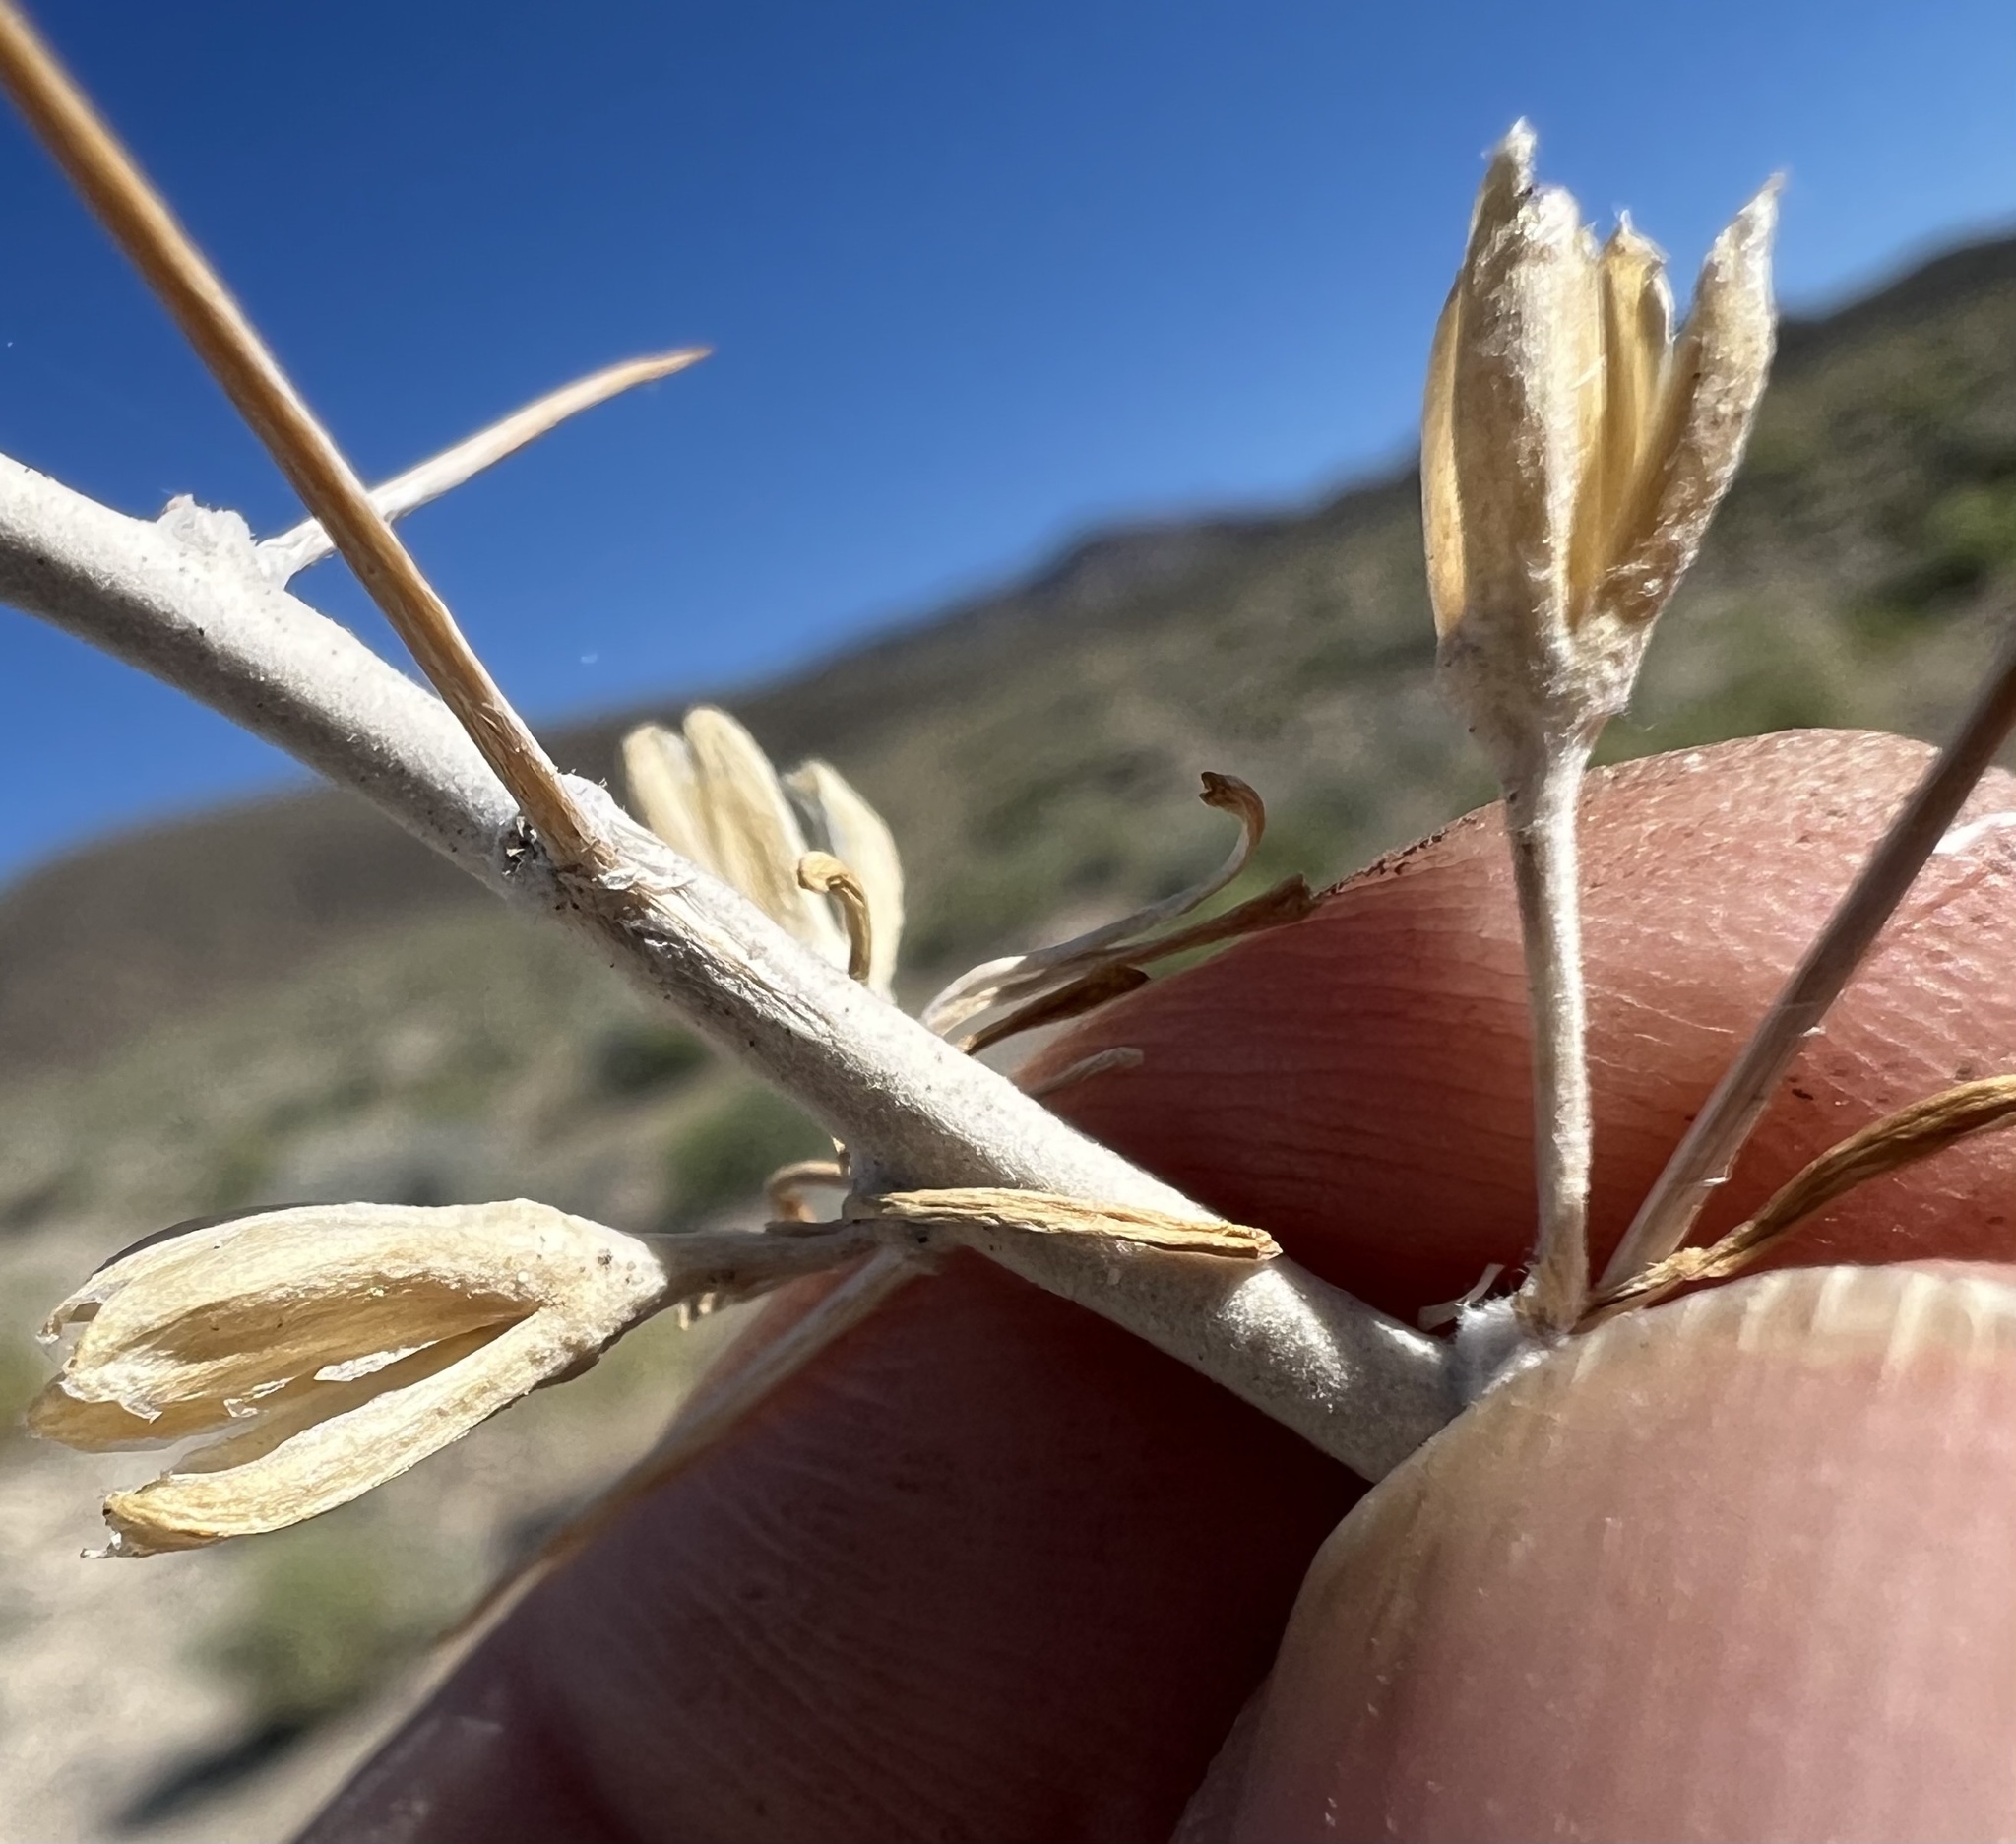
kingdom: Plantae
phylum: Tracheophyta
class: Magnoliopsida
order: Asterales
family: Asteraceae
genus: Tetradymia
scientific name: Tetradymia axillaris
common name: Long-spine horsebrush
